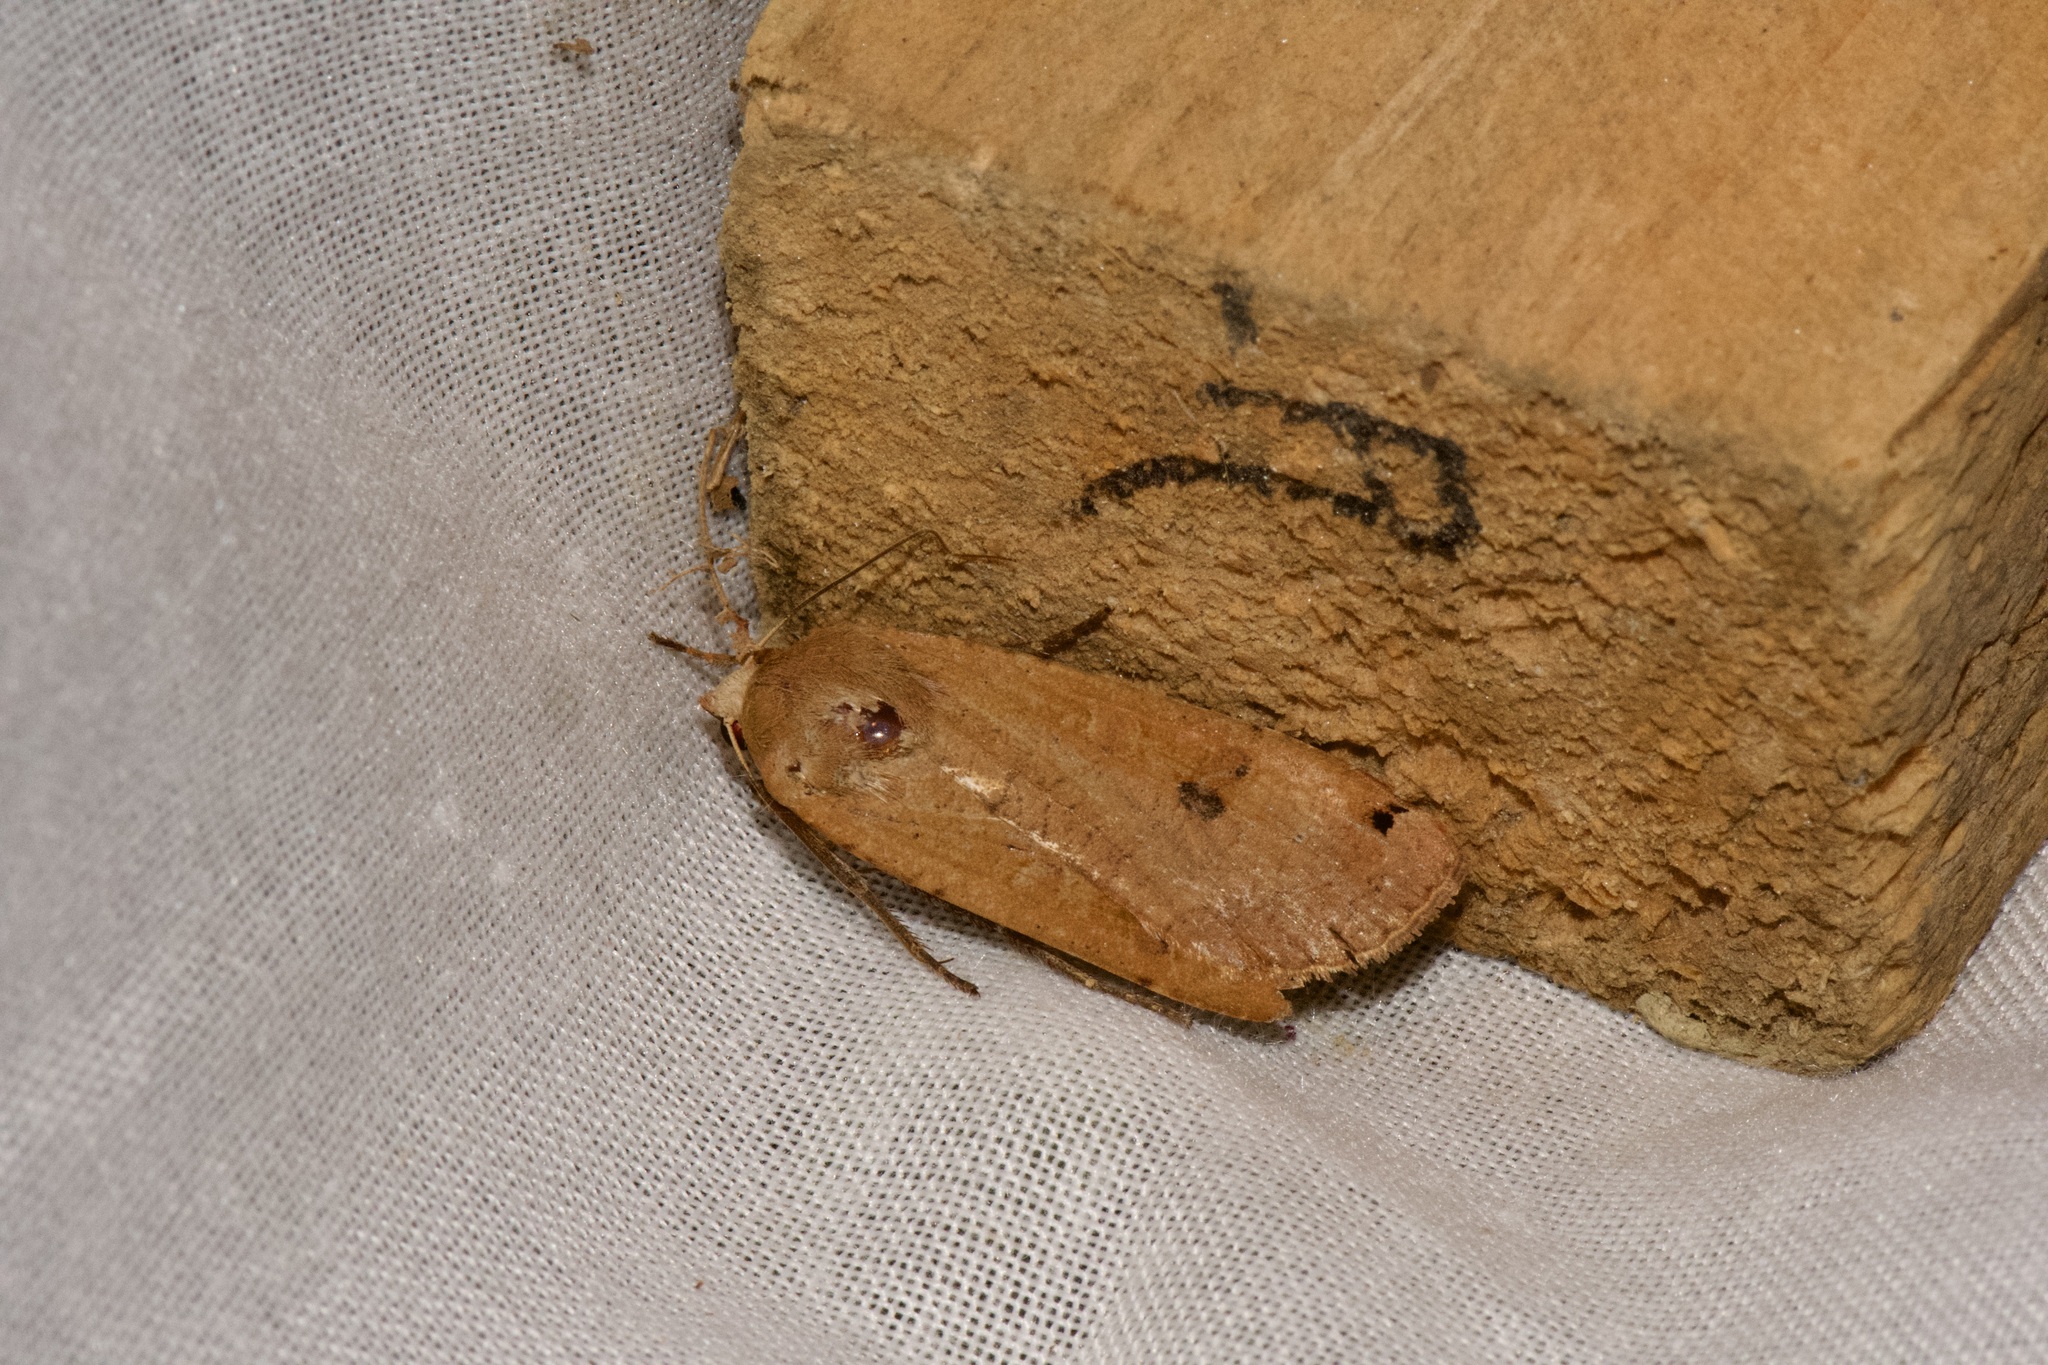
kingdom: Animalia
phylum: Arthropoda
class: Insecta
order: Lepidoptera
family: Noctuidae
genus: Noctua
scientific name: Noctua pronuba
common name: Large yellow underwing
